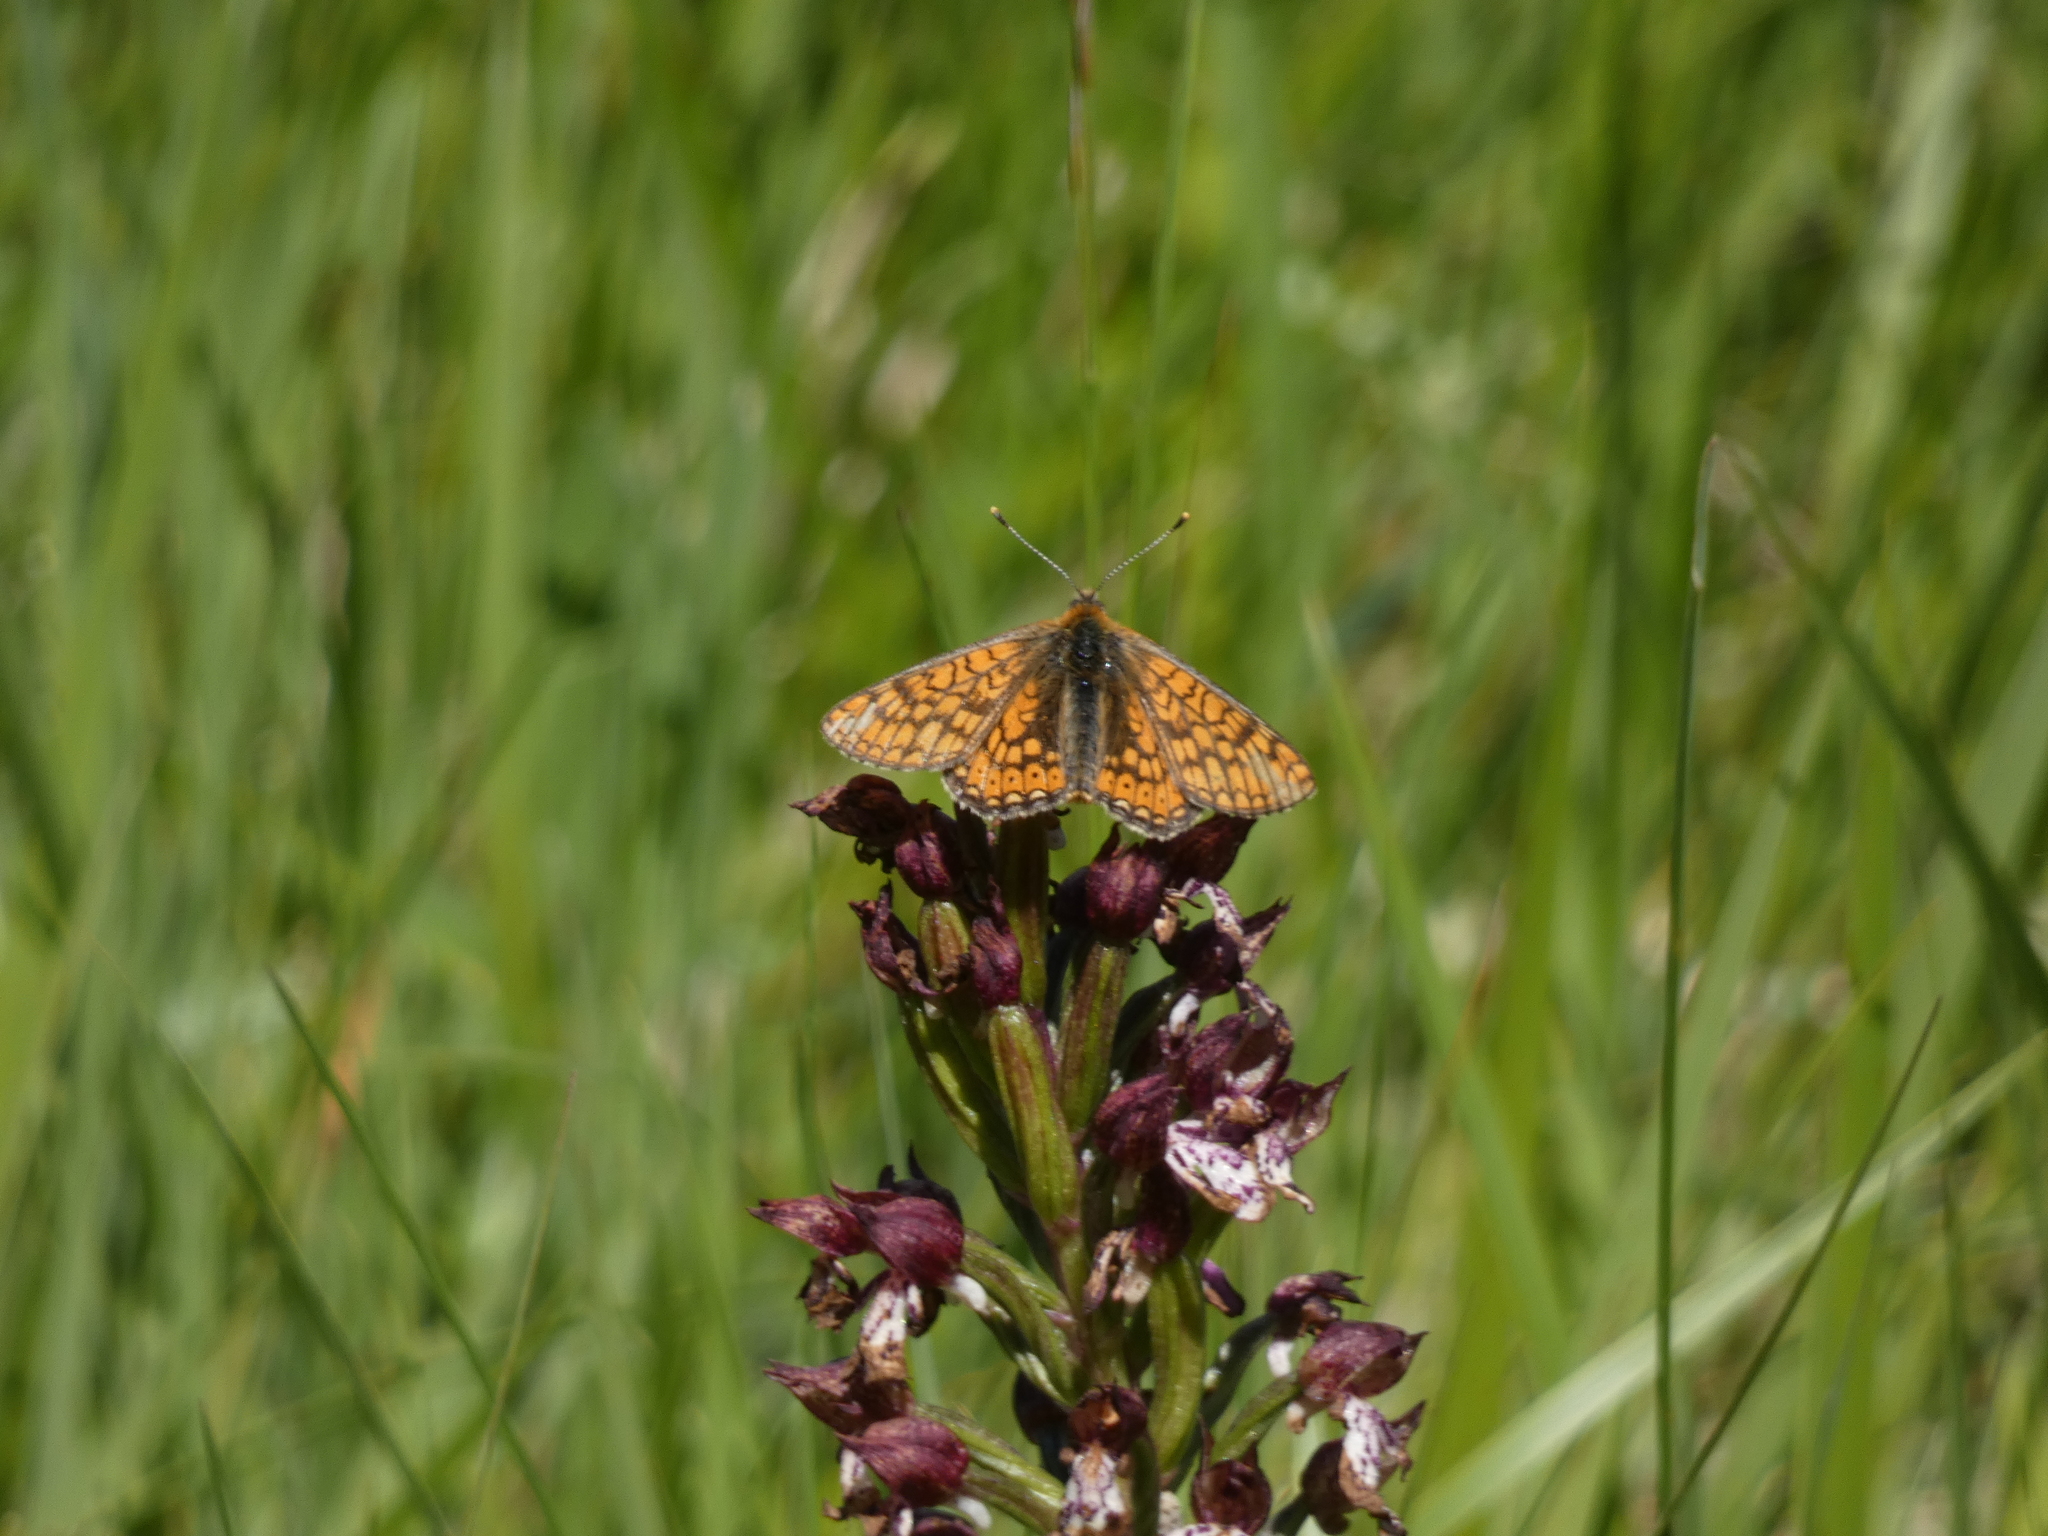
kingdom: Animalia
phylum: Arthropoda
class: Insecta
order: Lepidoptera
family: Nymphalidae
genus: Euphydryas
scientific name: Euphydryas aurinia
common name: Marsh fritillary
